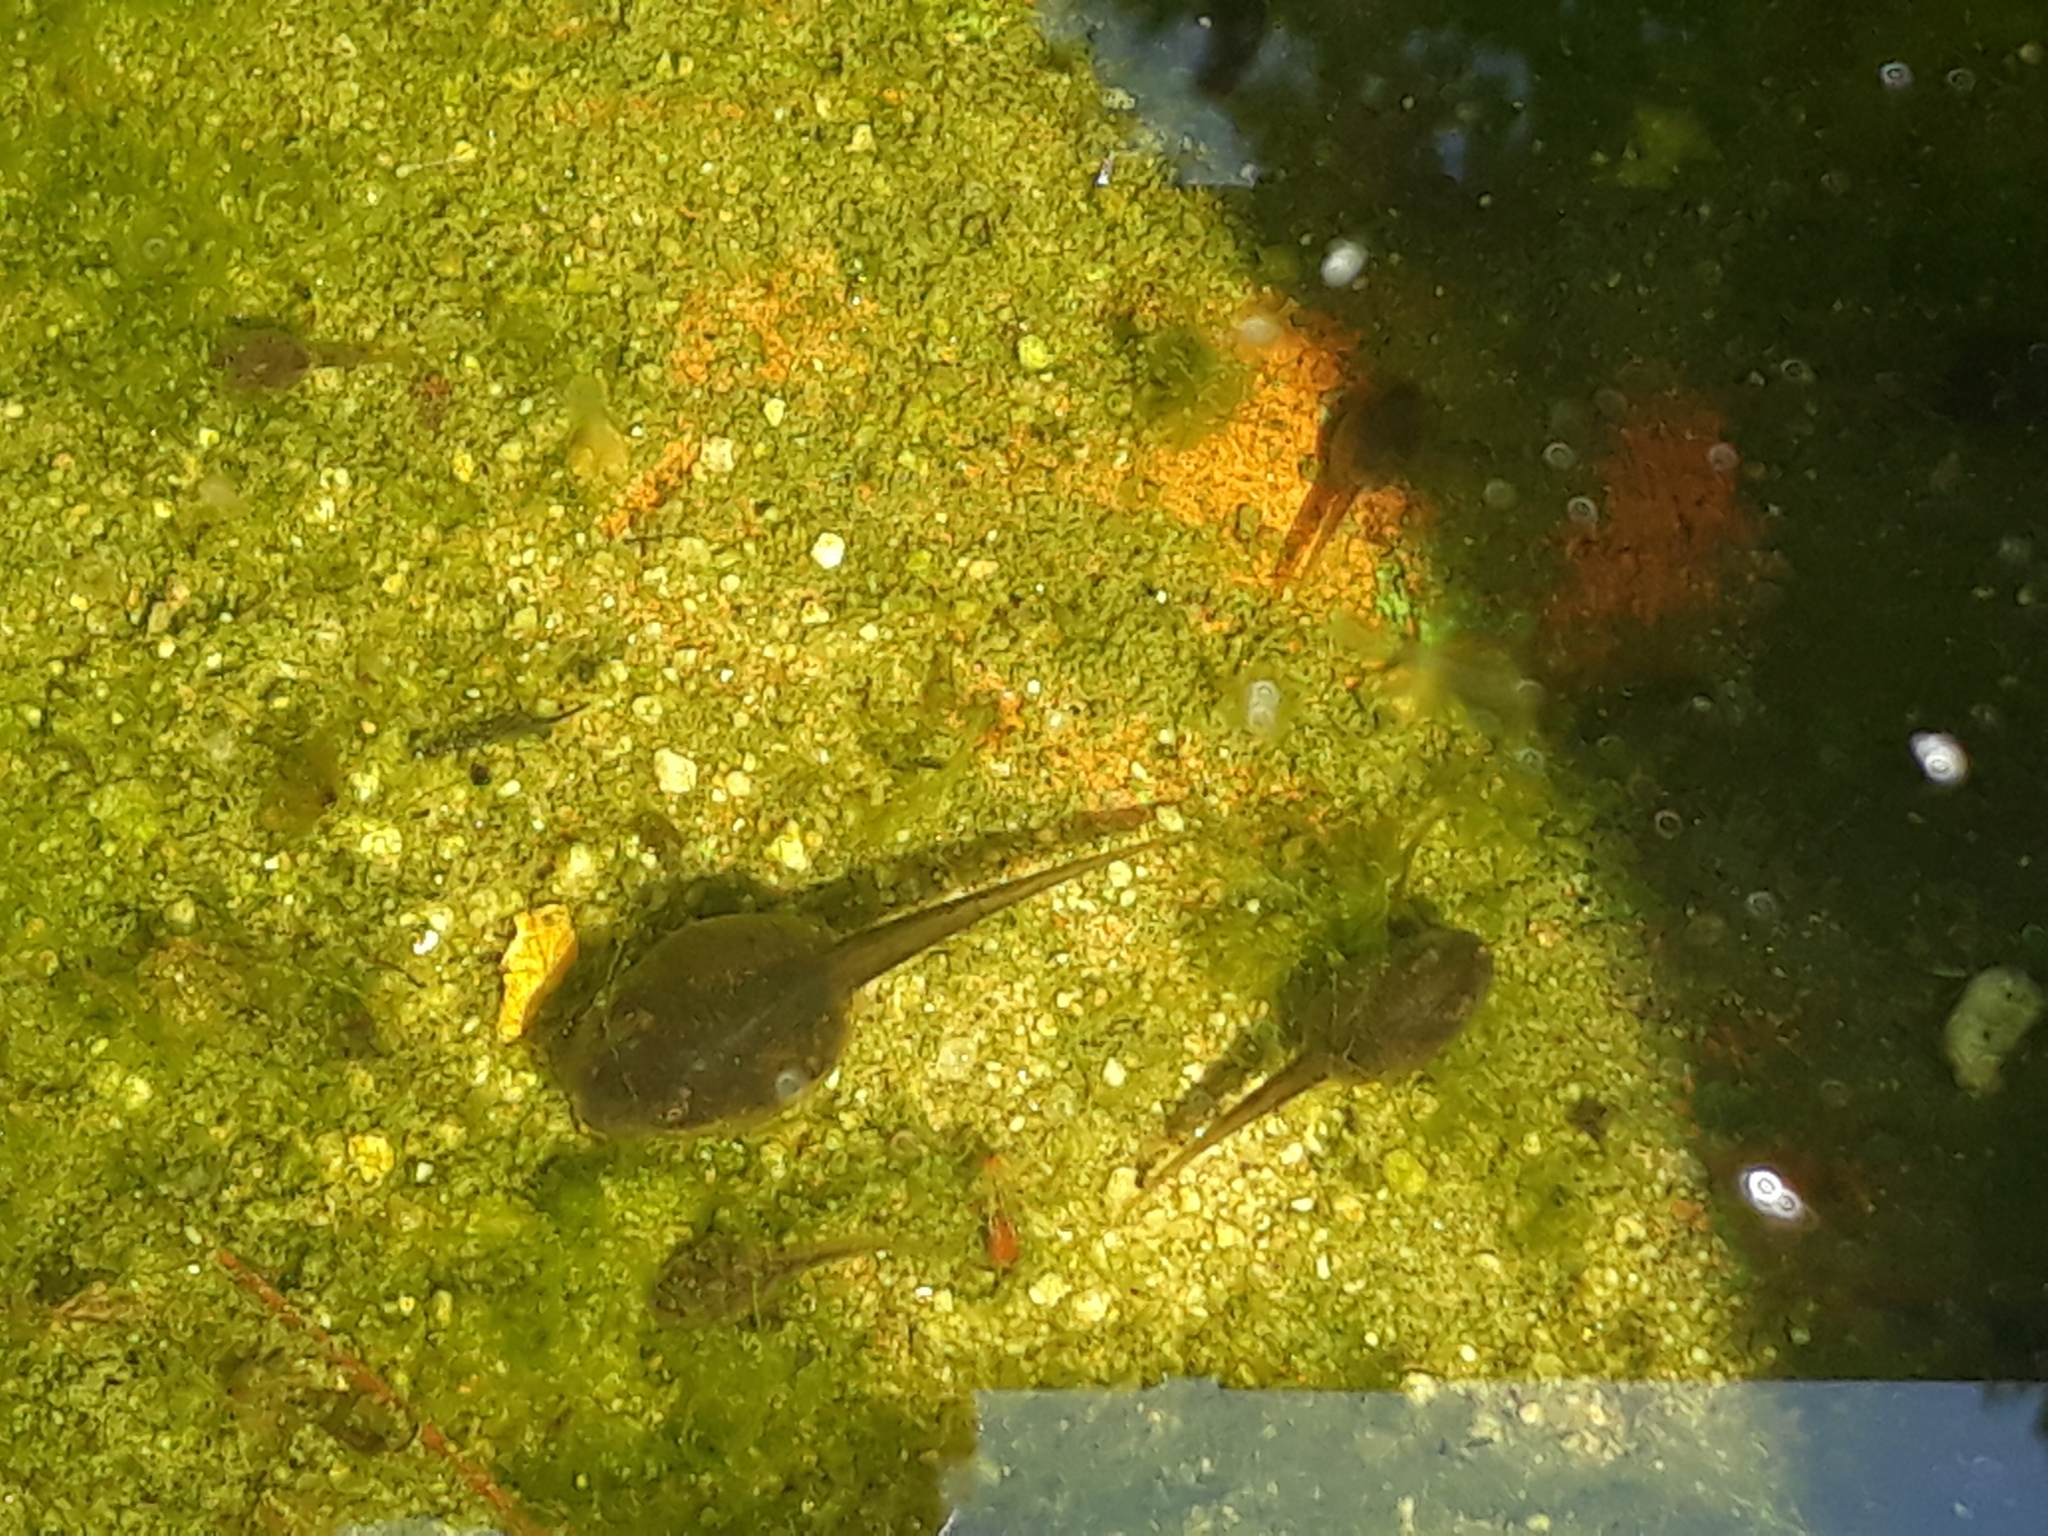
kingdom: Animalia
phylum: Chordata
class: Amphibia
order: Anura
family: Alytidae
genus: Alytes
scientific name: Alytes obstetricans
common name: Midwife toad
